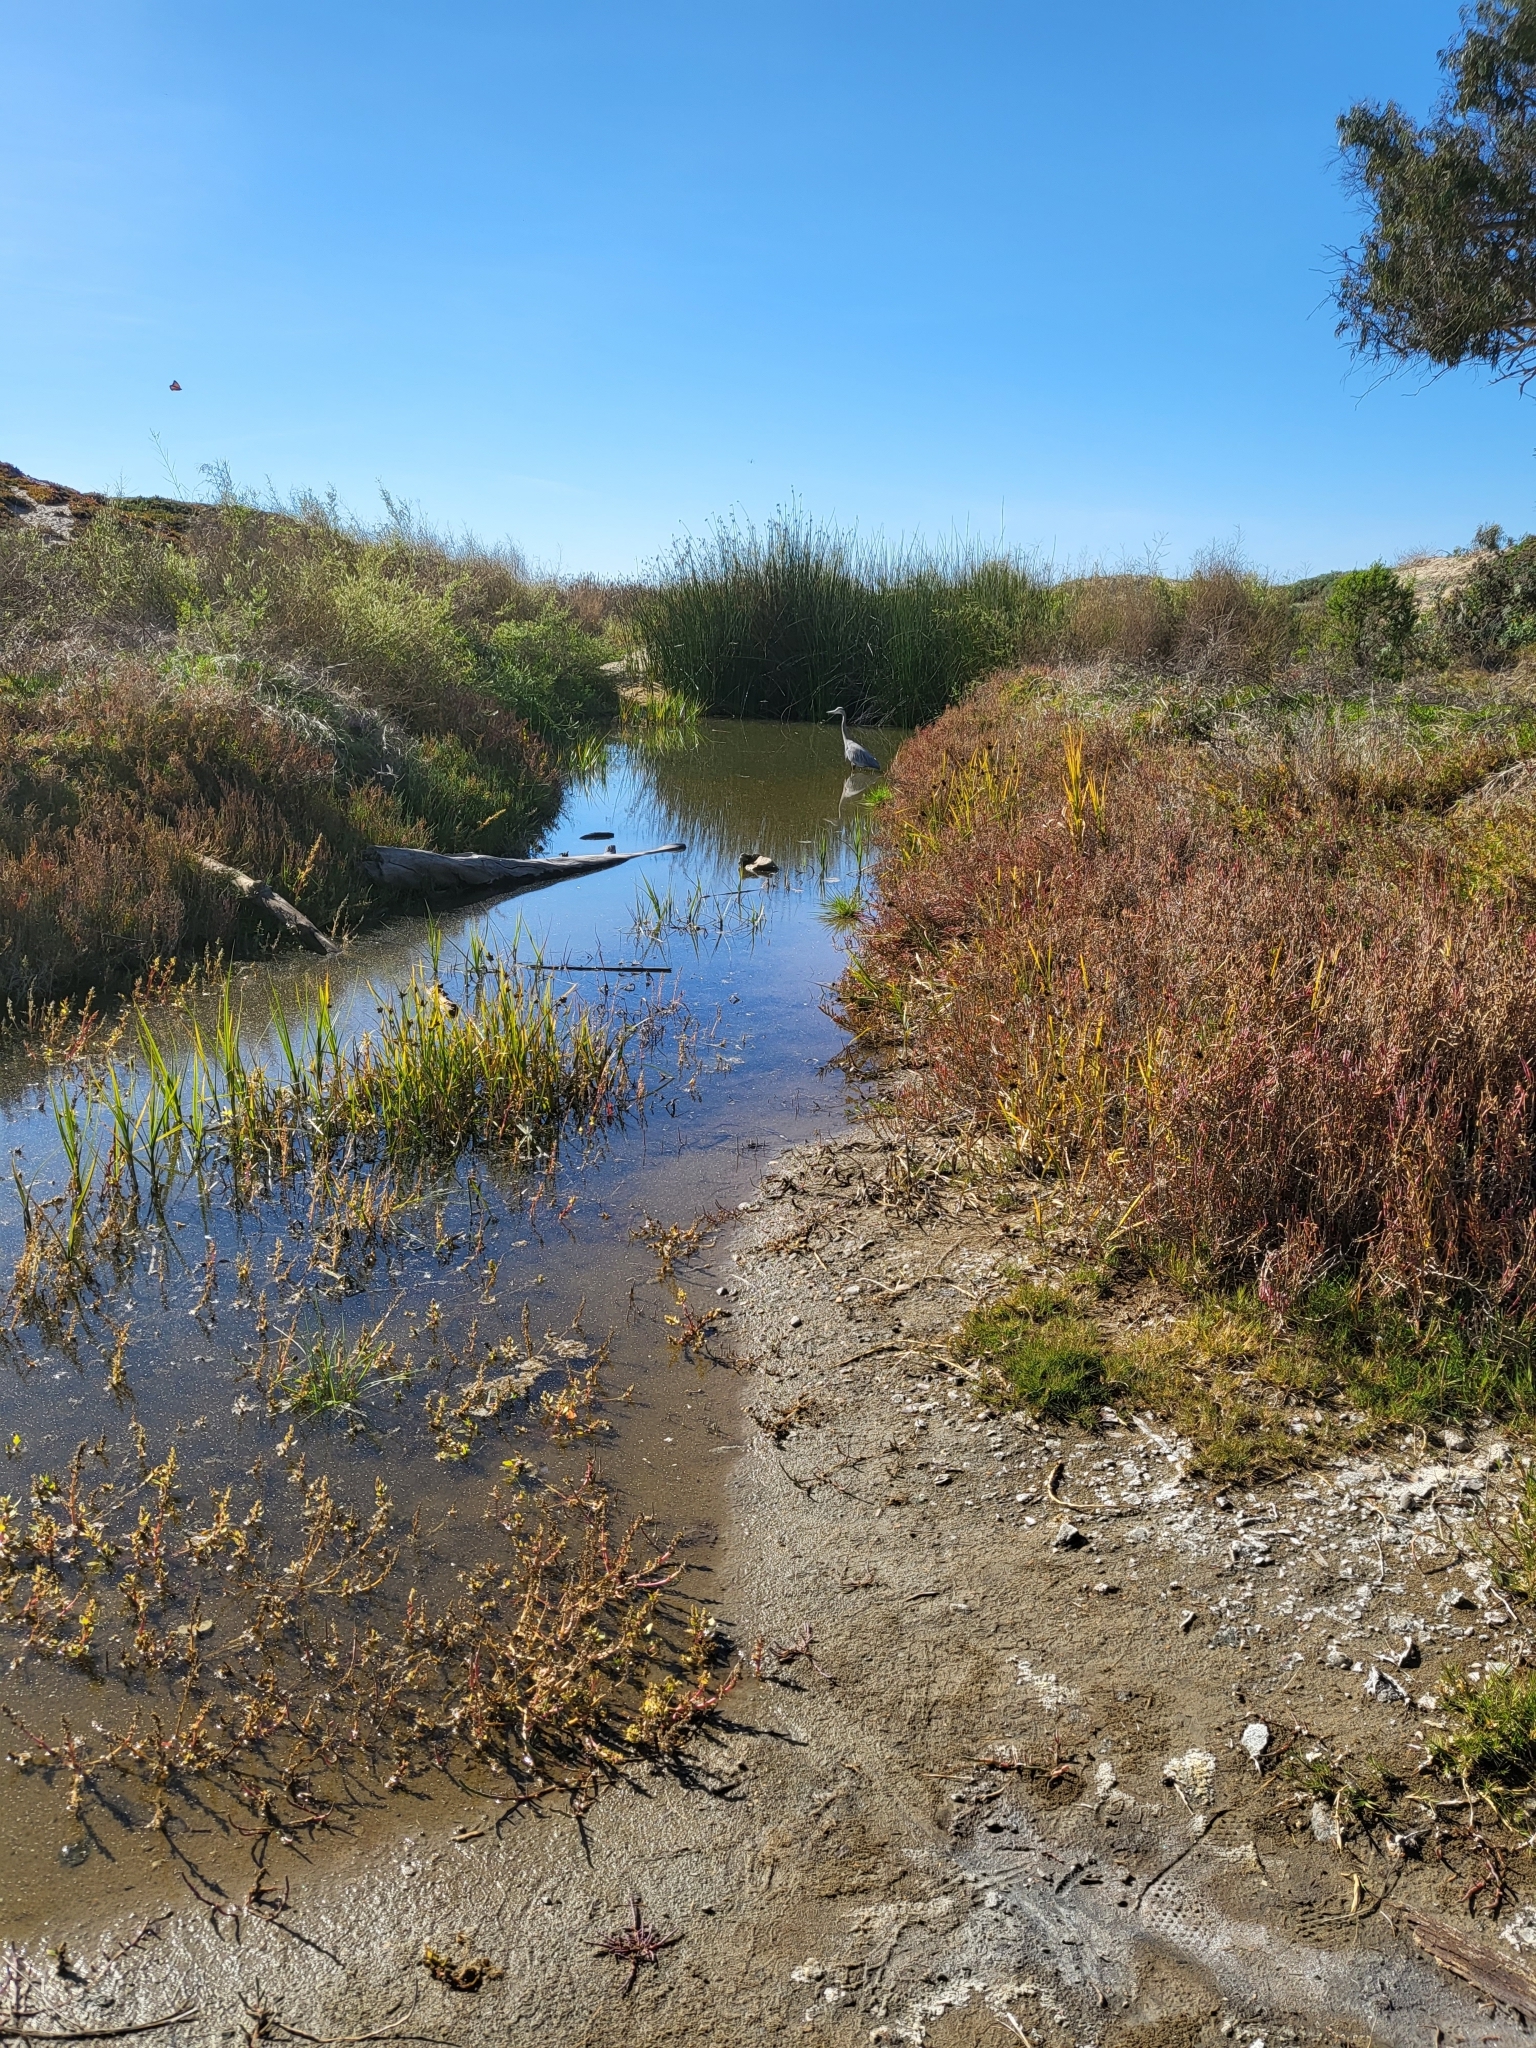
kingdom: Animalia
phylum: Chordata
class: Aves
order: Pelecaniformes
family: Ardeidae
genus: Ardea
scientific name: Ardea herodias
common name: Great blue heron
